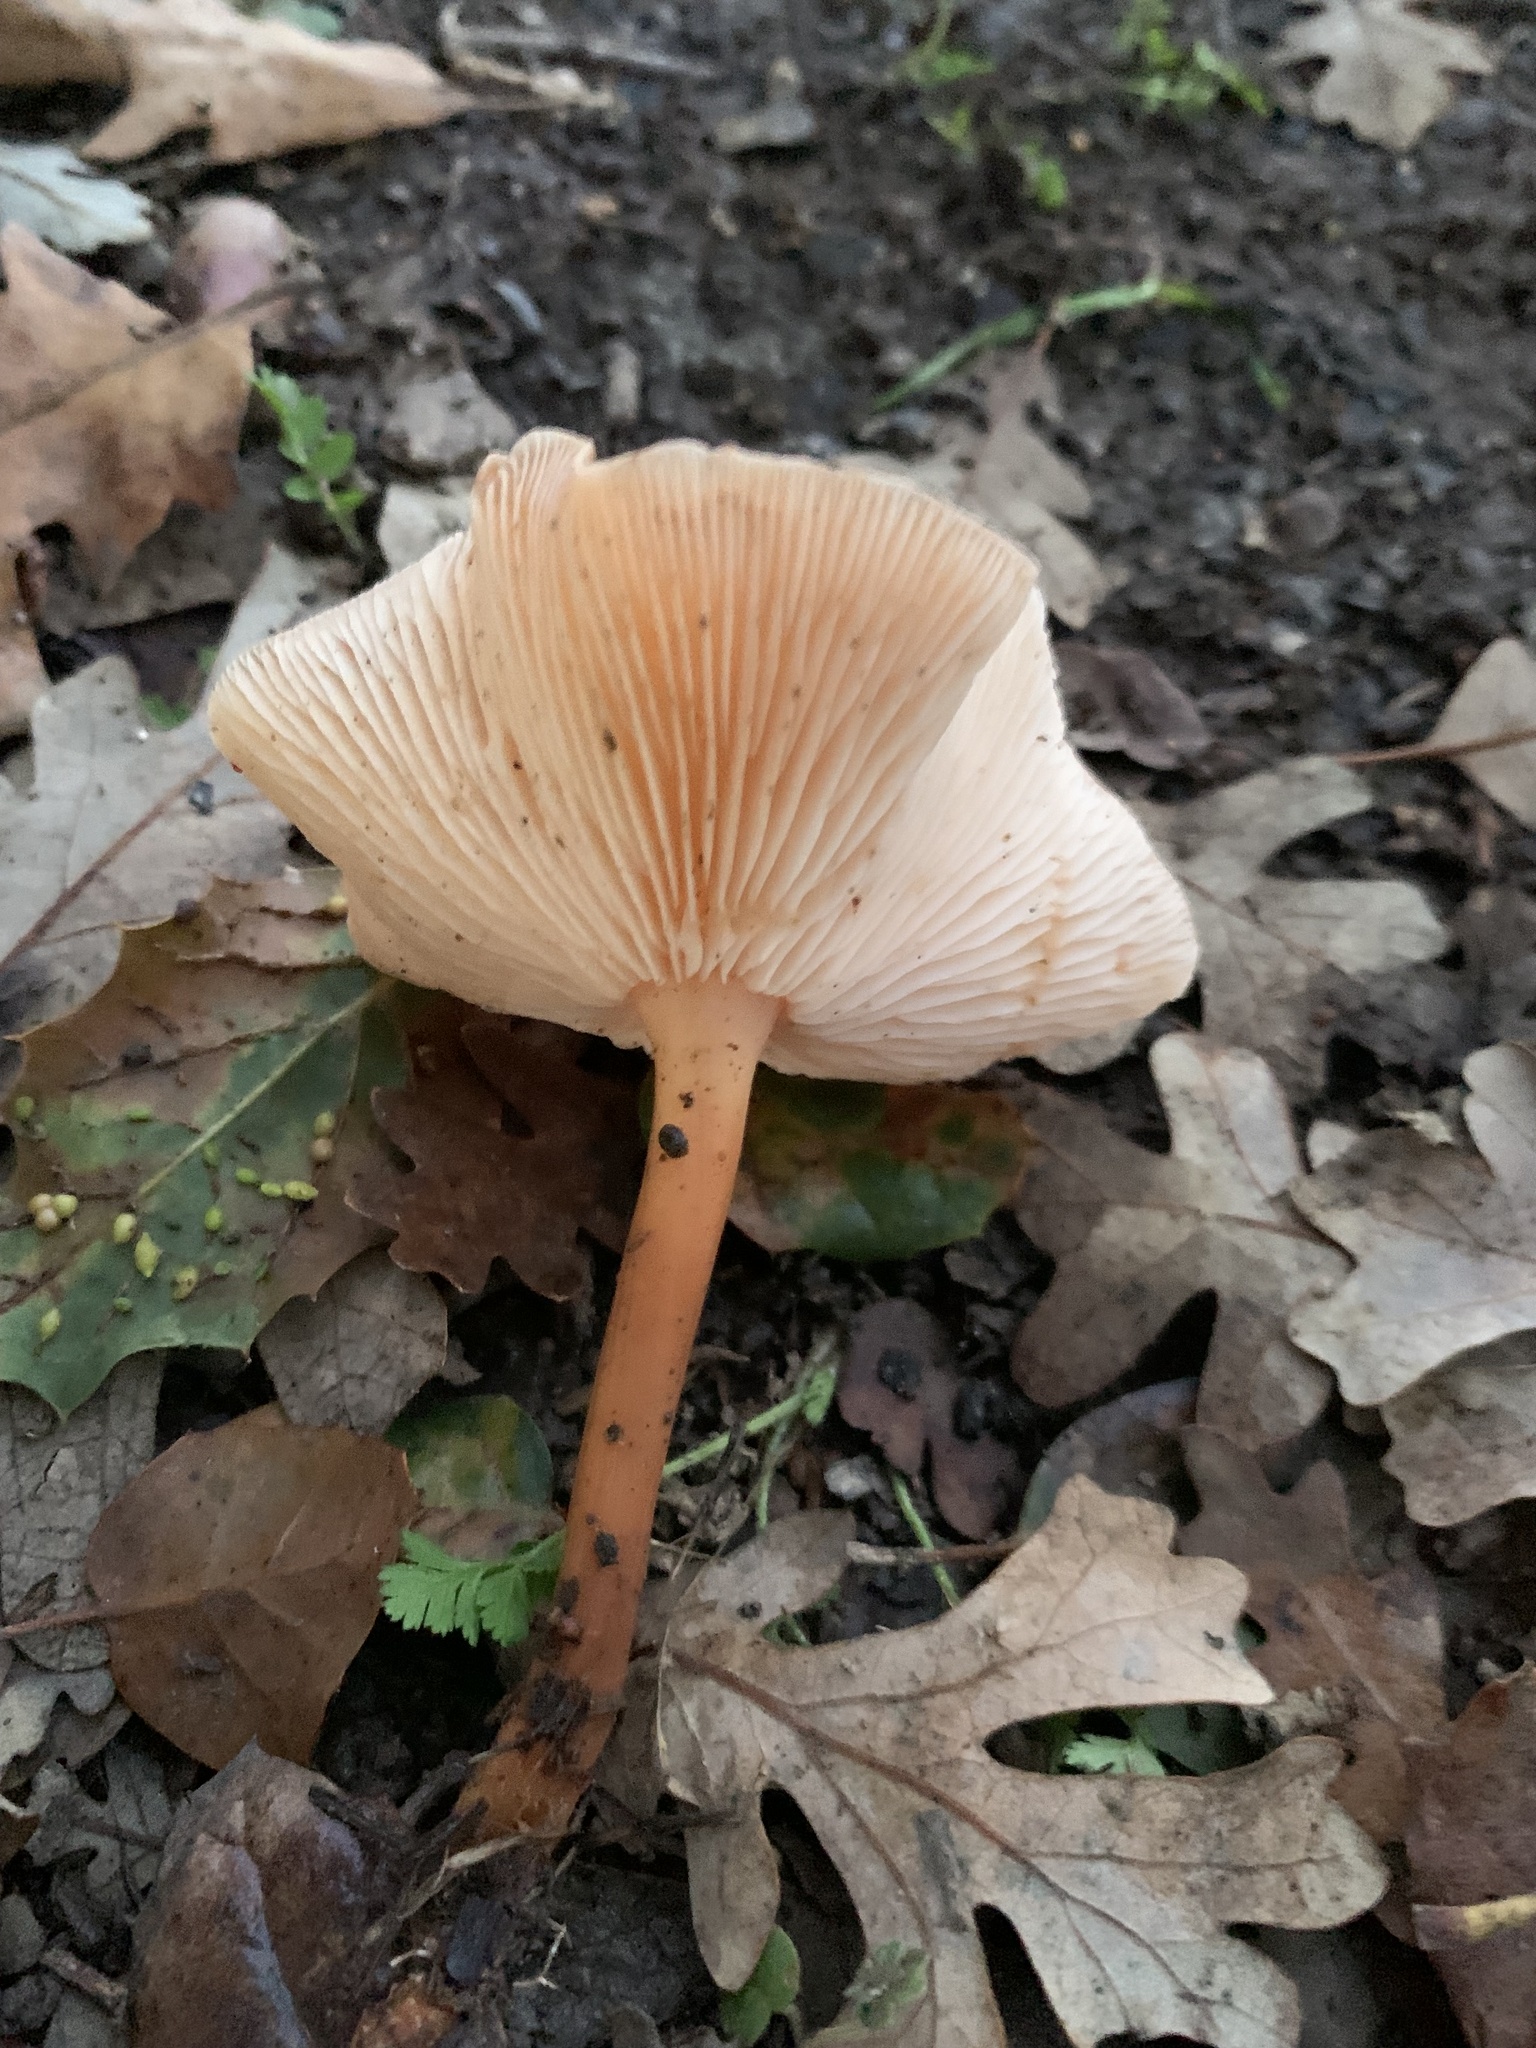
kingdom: Fungi
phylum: Basidiomycota
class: Agaricomycetes
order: Agaricales
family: Omphalotaceae
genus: Gymnopus
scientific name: Gymnopus dryophilus
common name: Penny top
